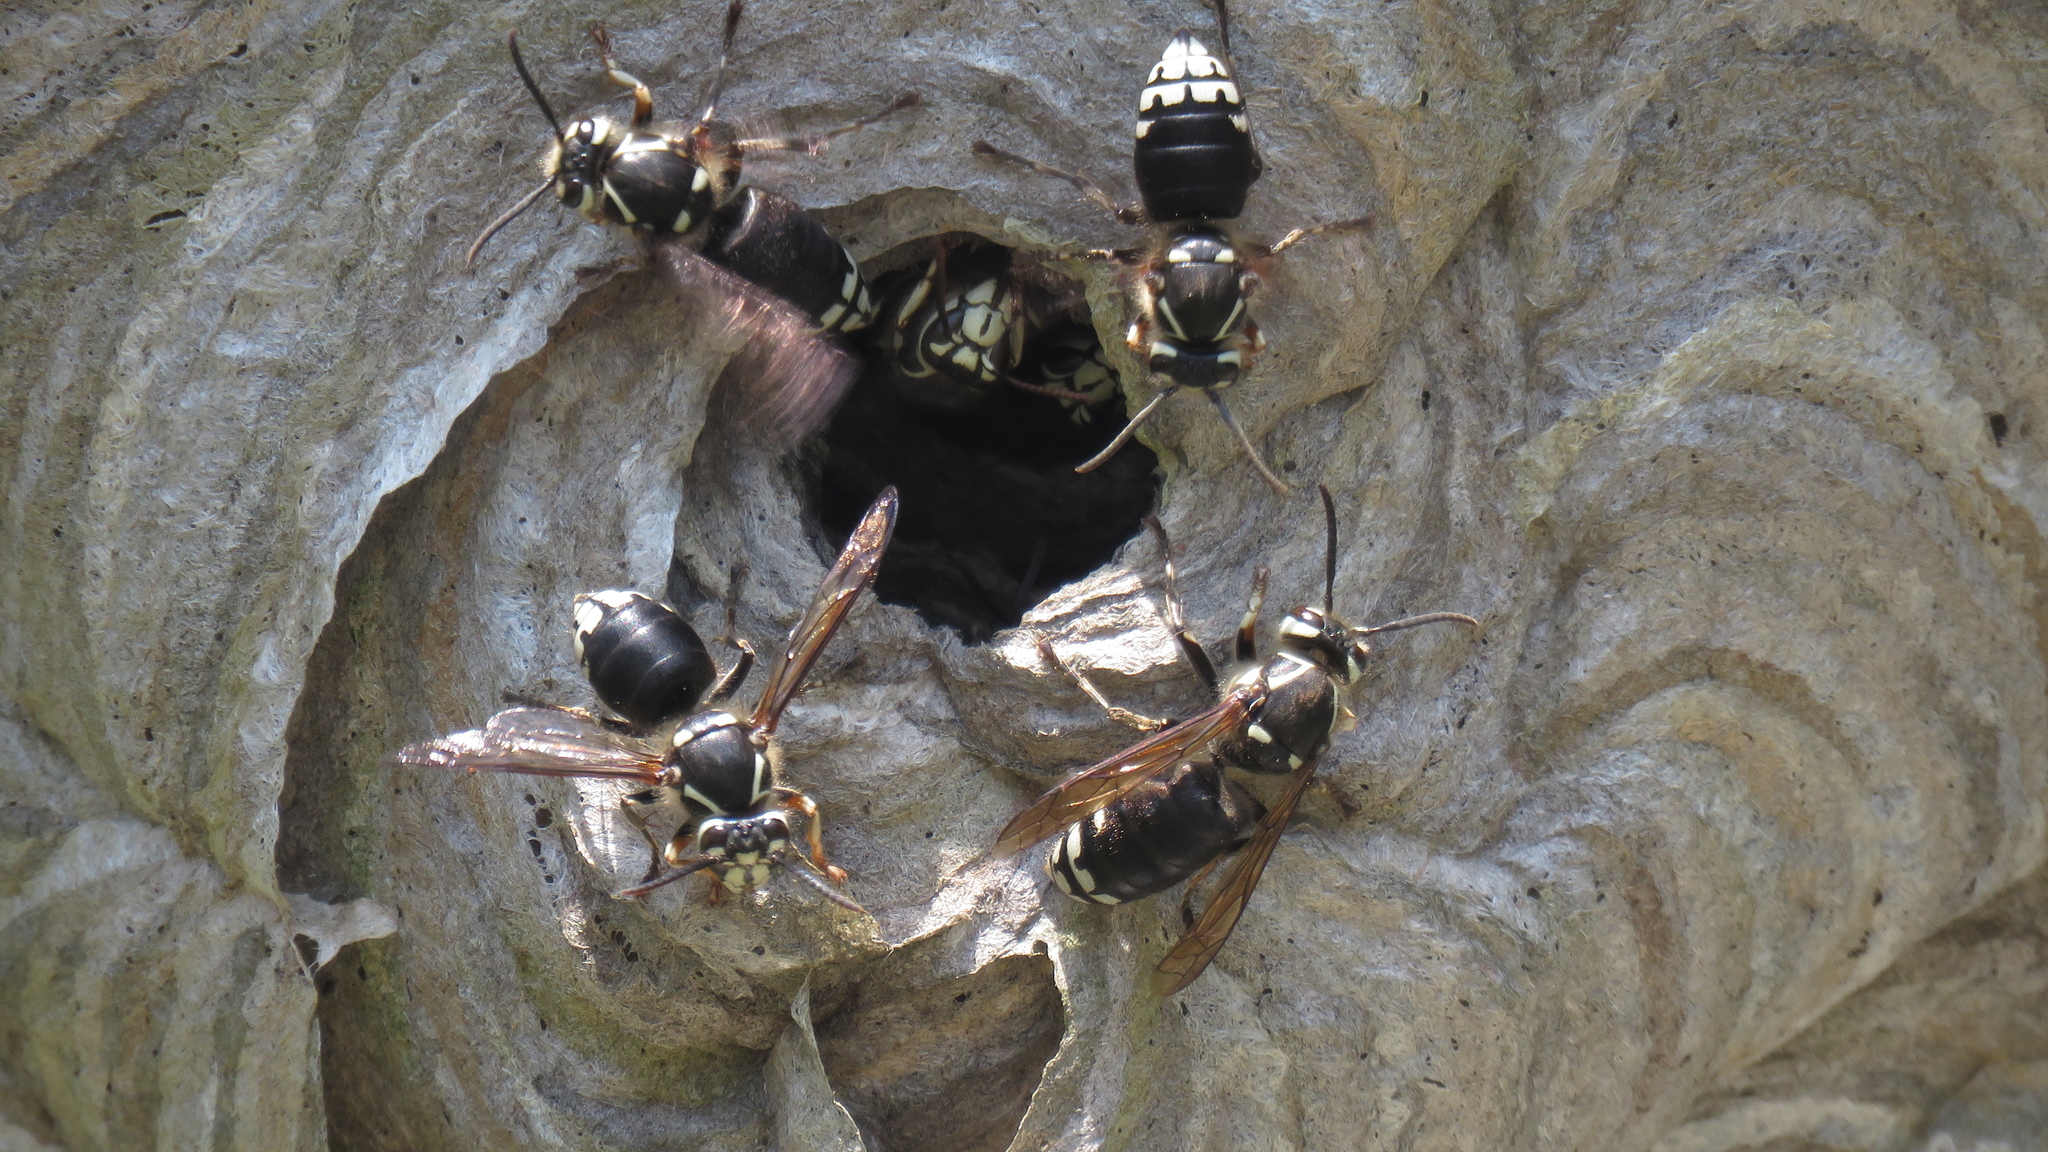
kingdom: Animalia
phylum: Arthropoda
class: Insecta
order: Hymenoptera
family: Vespidae
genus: Dolichovespula
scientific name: Dolichovespula maculata
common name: Bald-faced hornet
